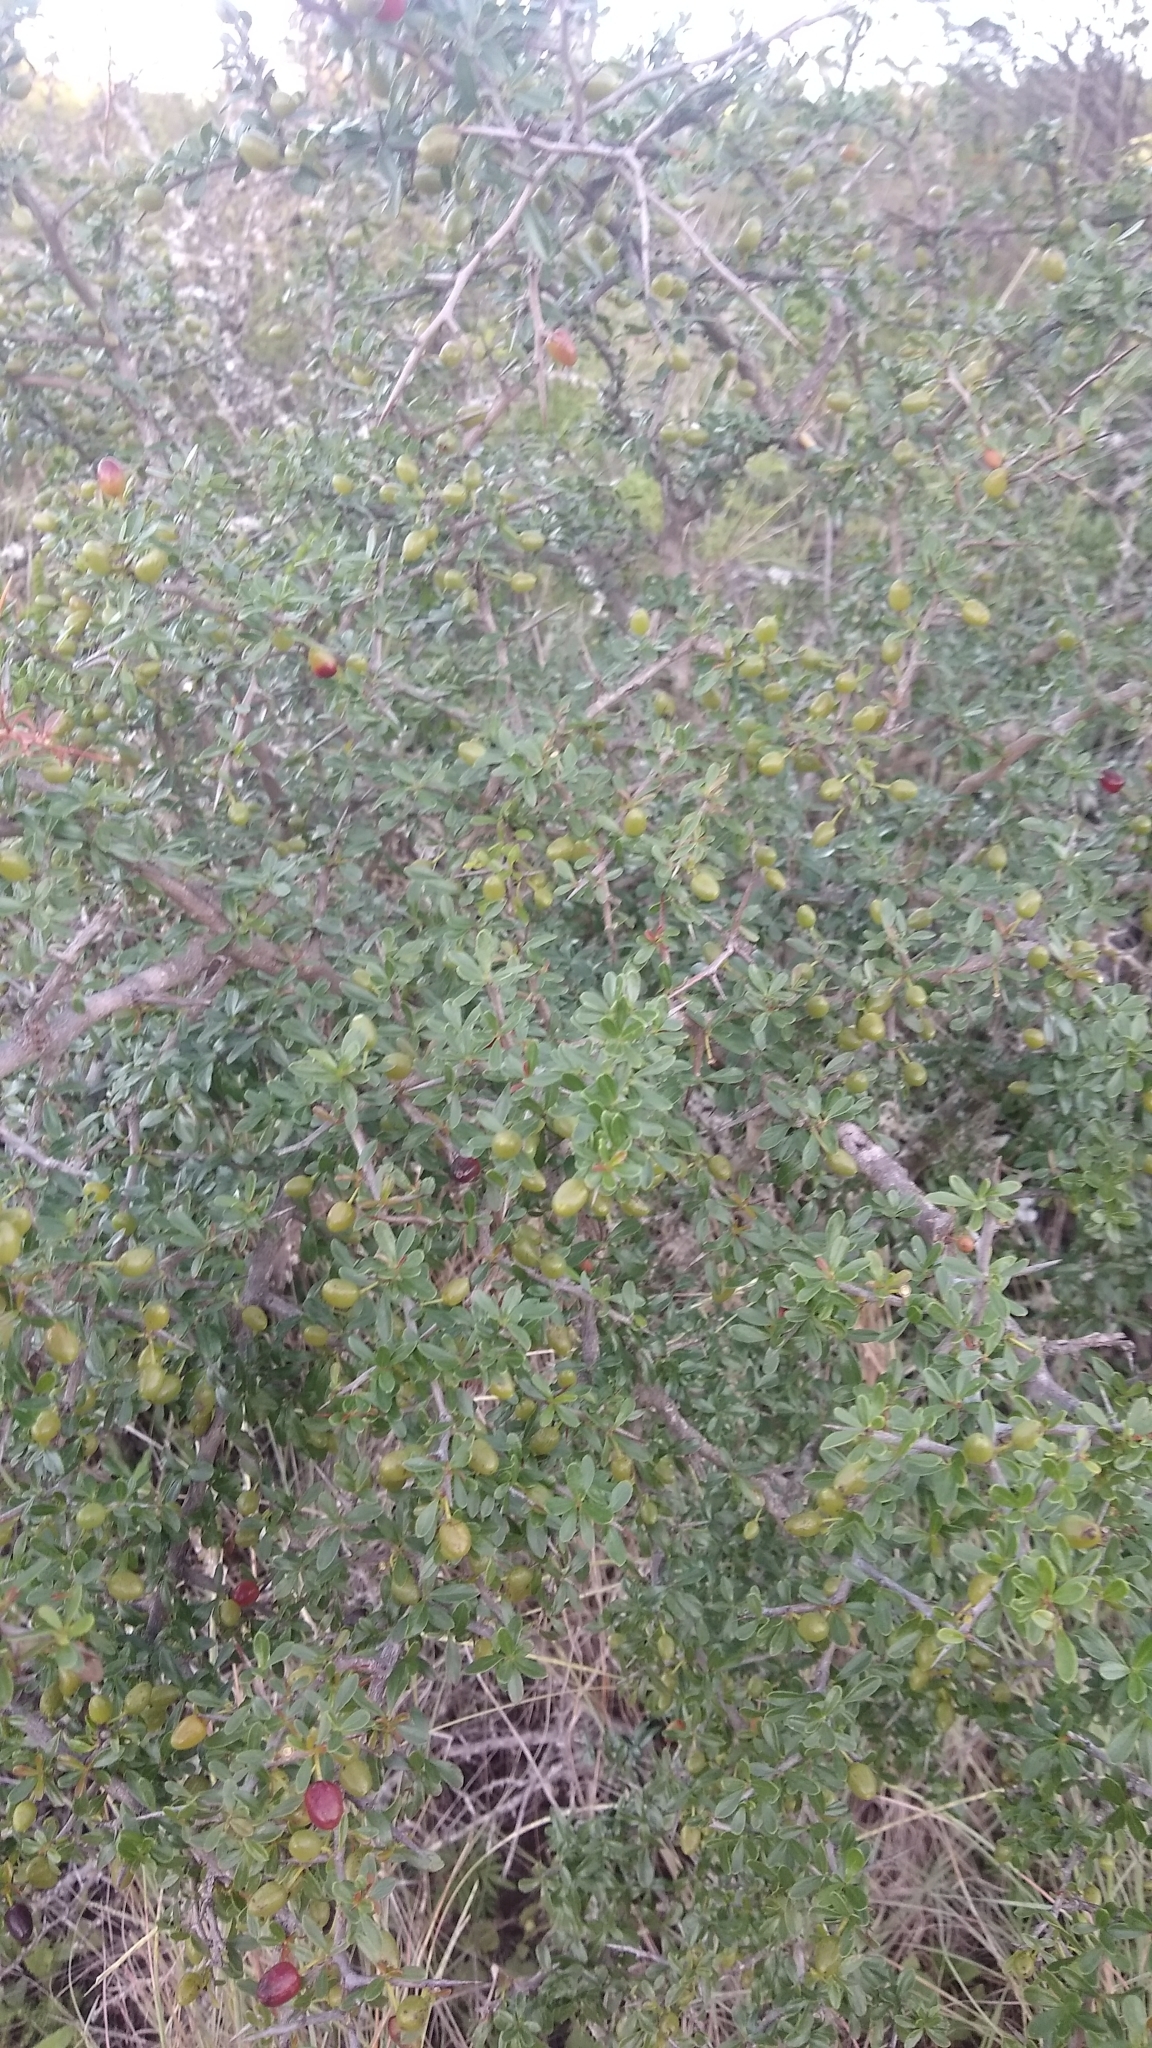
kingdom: Plantae
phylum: Tracheophyta
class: Magnoliopsida
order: Rosales
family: Rhamnaceae
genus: Condalia
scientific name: Condalia microphylla
